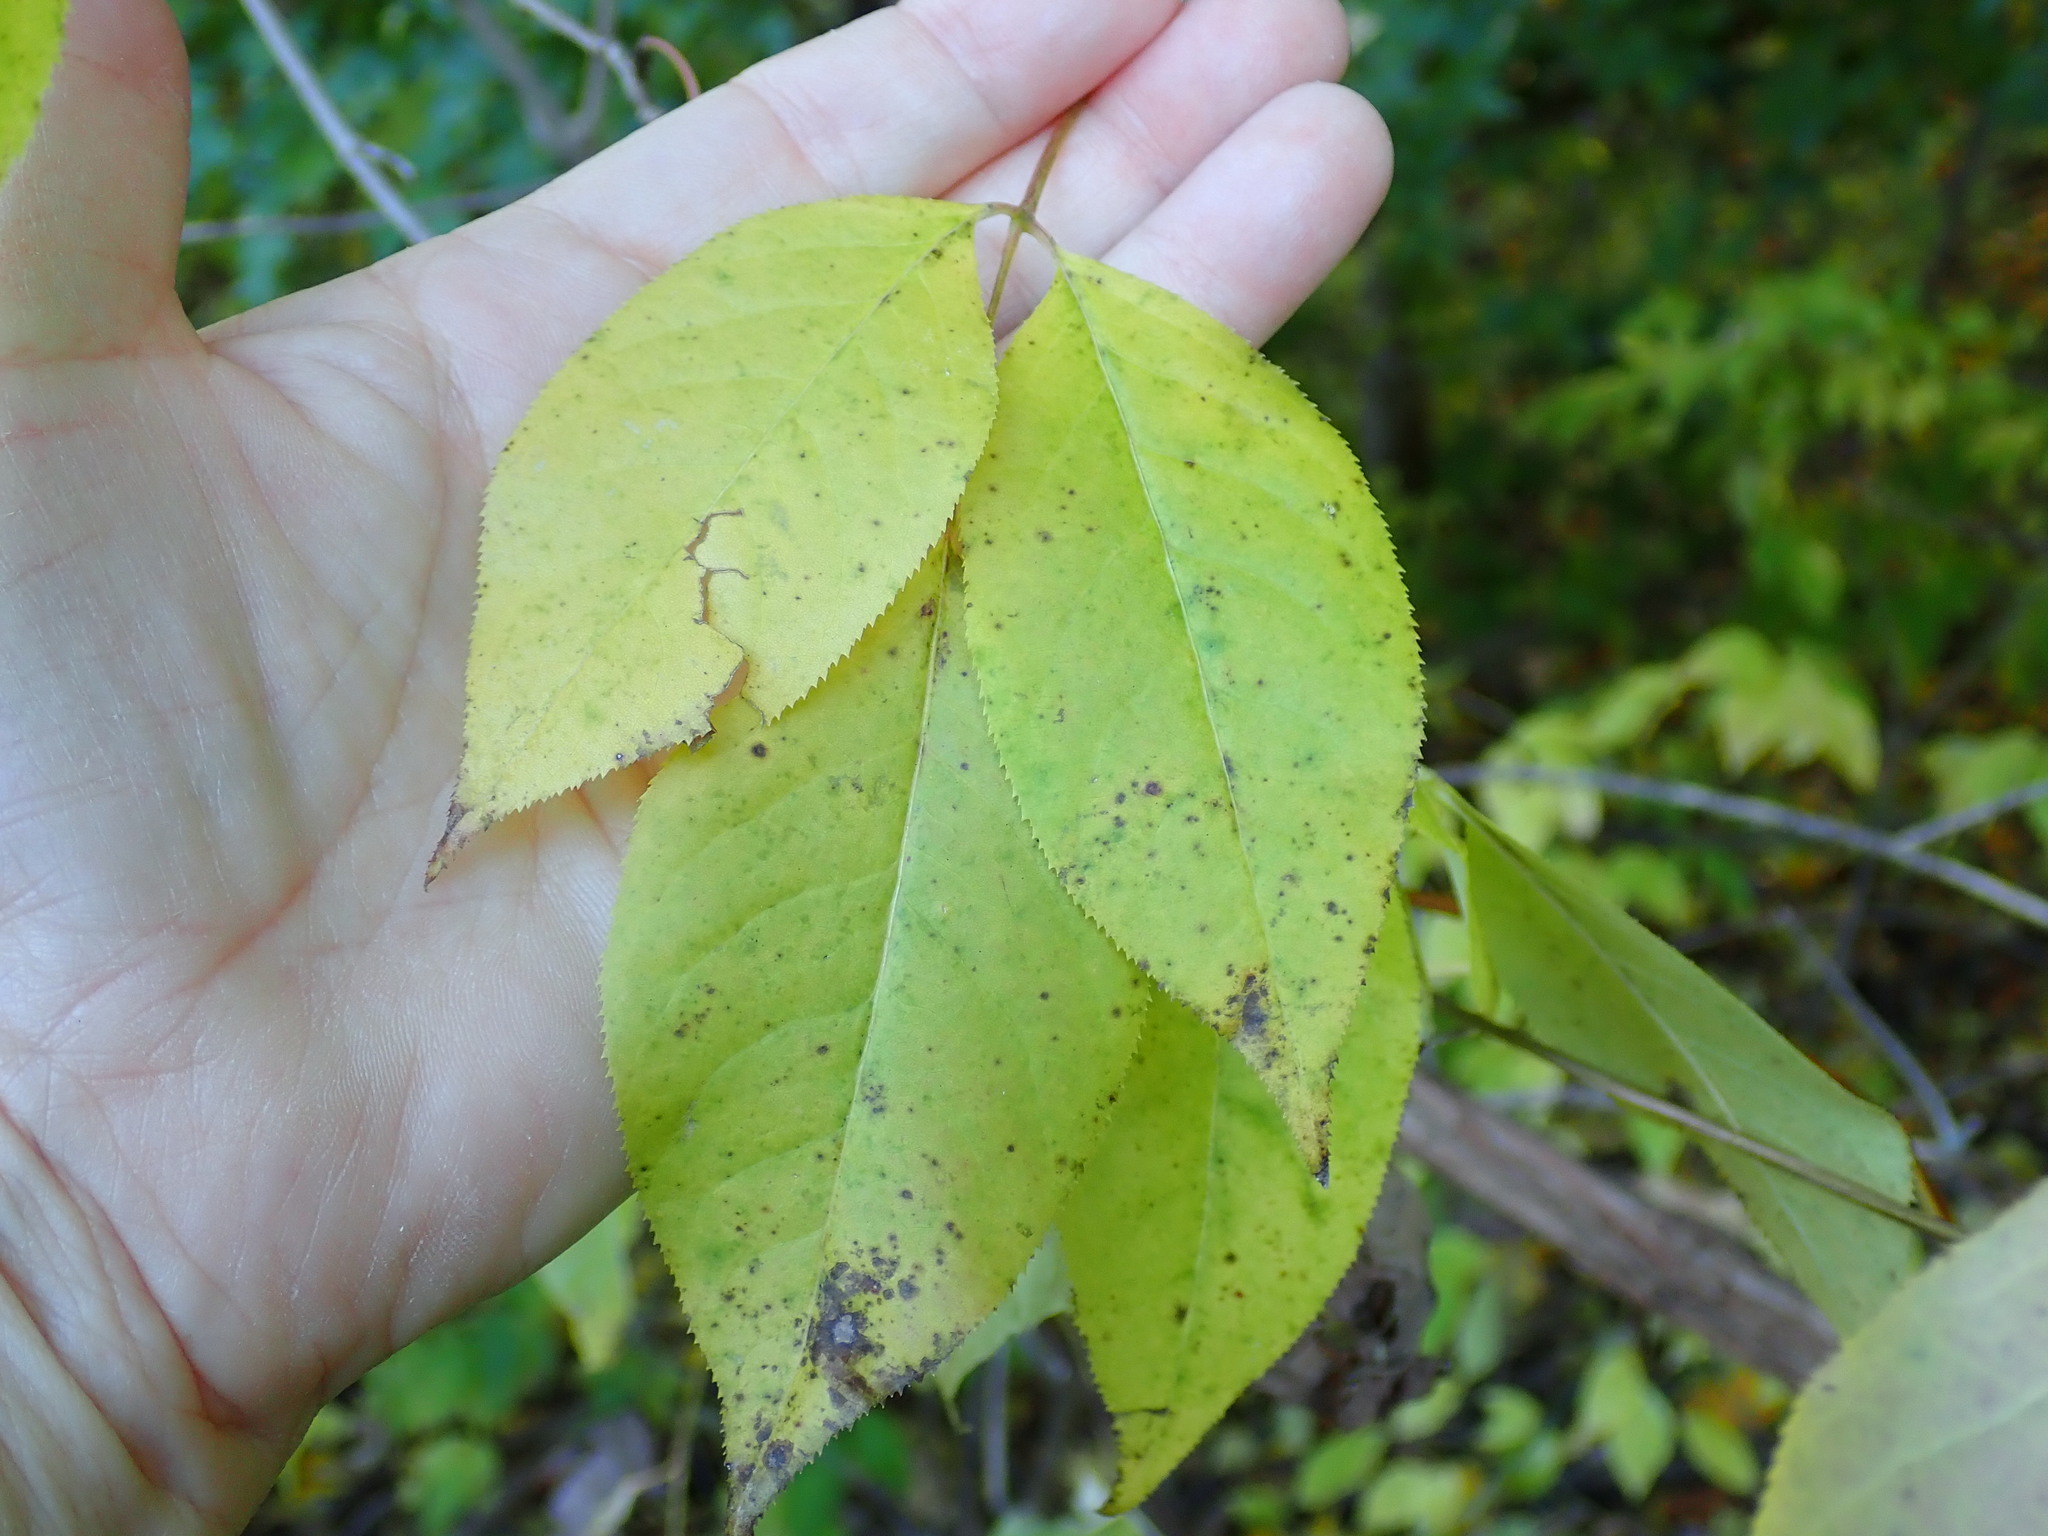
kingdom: Plantae
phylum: Tracheophyta
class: Magnoliopsida
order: Crossosomatales
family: Staphyleaceae
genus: Staphylea
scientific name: Staphylea trifolia
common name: American bladdernut
